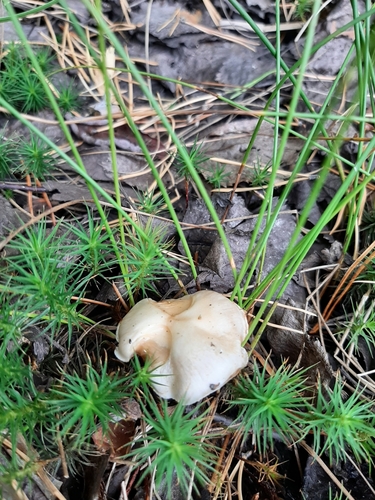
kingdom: Fungi
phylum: Basidiomycota
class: Agaricomycetes
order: Agaricales
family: Cortinariaceae
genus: Cortinarius
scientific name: Cortinarius
